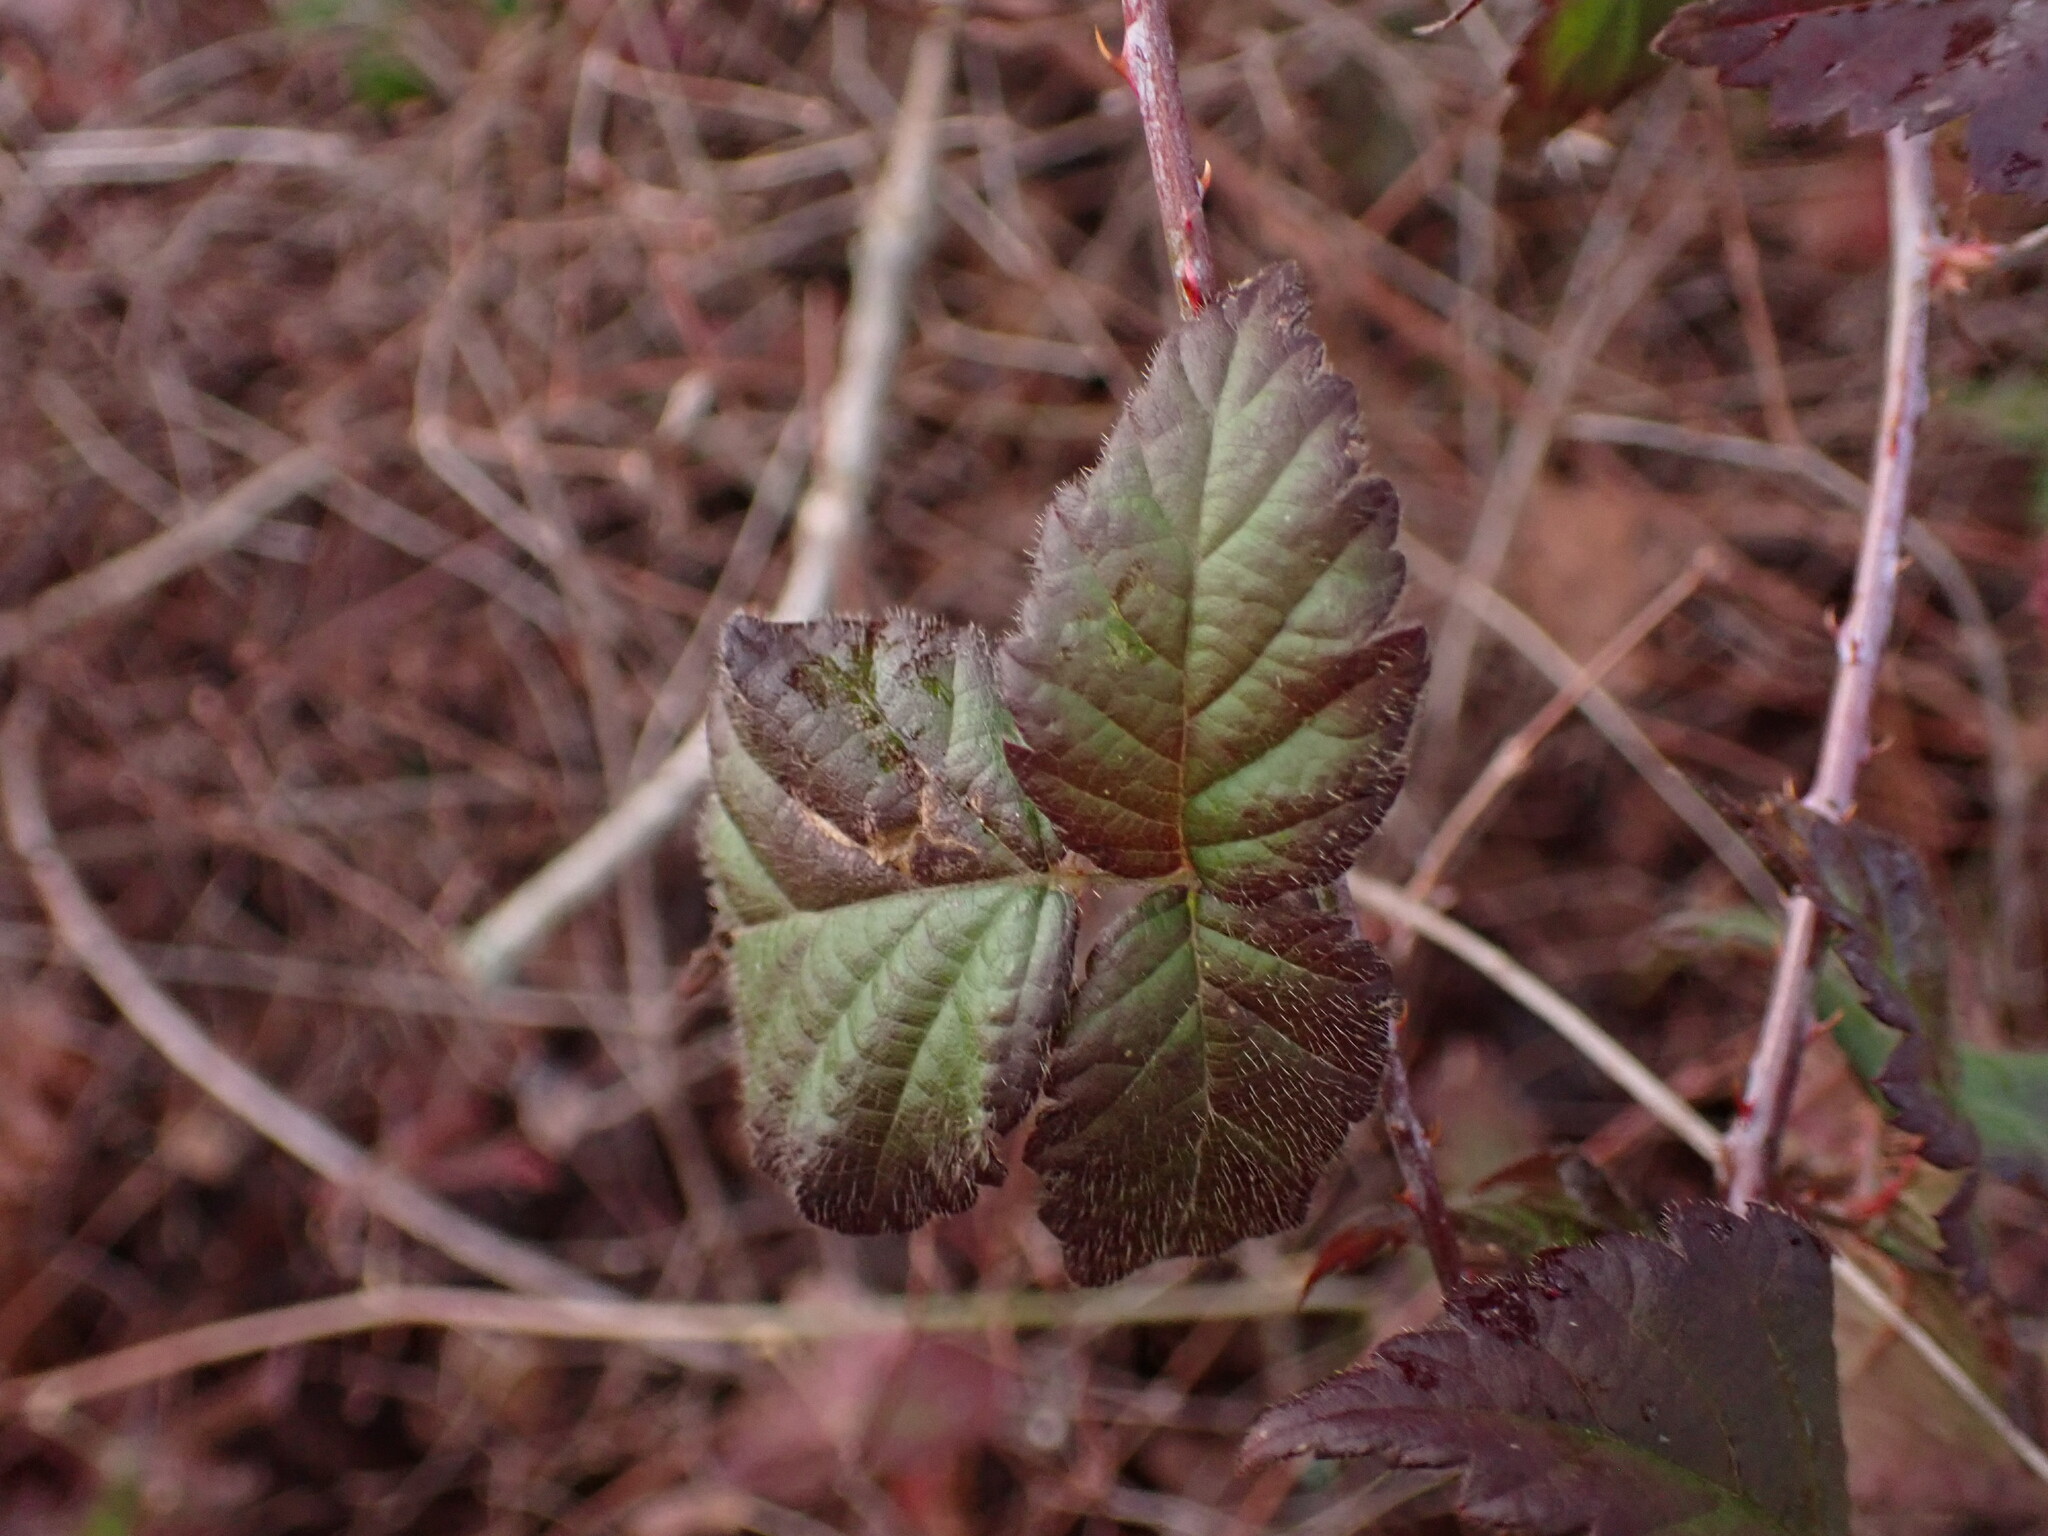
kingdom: Plantae
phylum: Tracheophyta
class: Magnoliopsida
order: Rosales
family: Rosaceae
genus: Rubus
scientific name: Rubus ursinus
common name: Pacific blackberry
